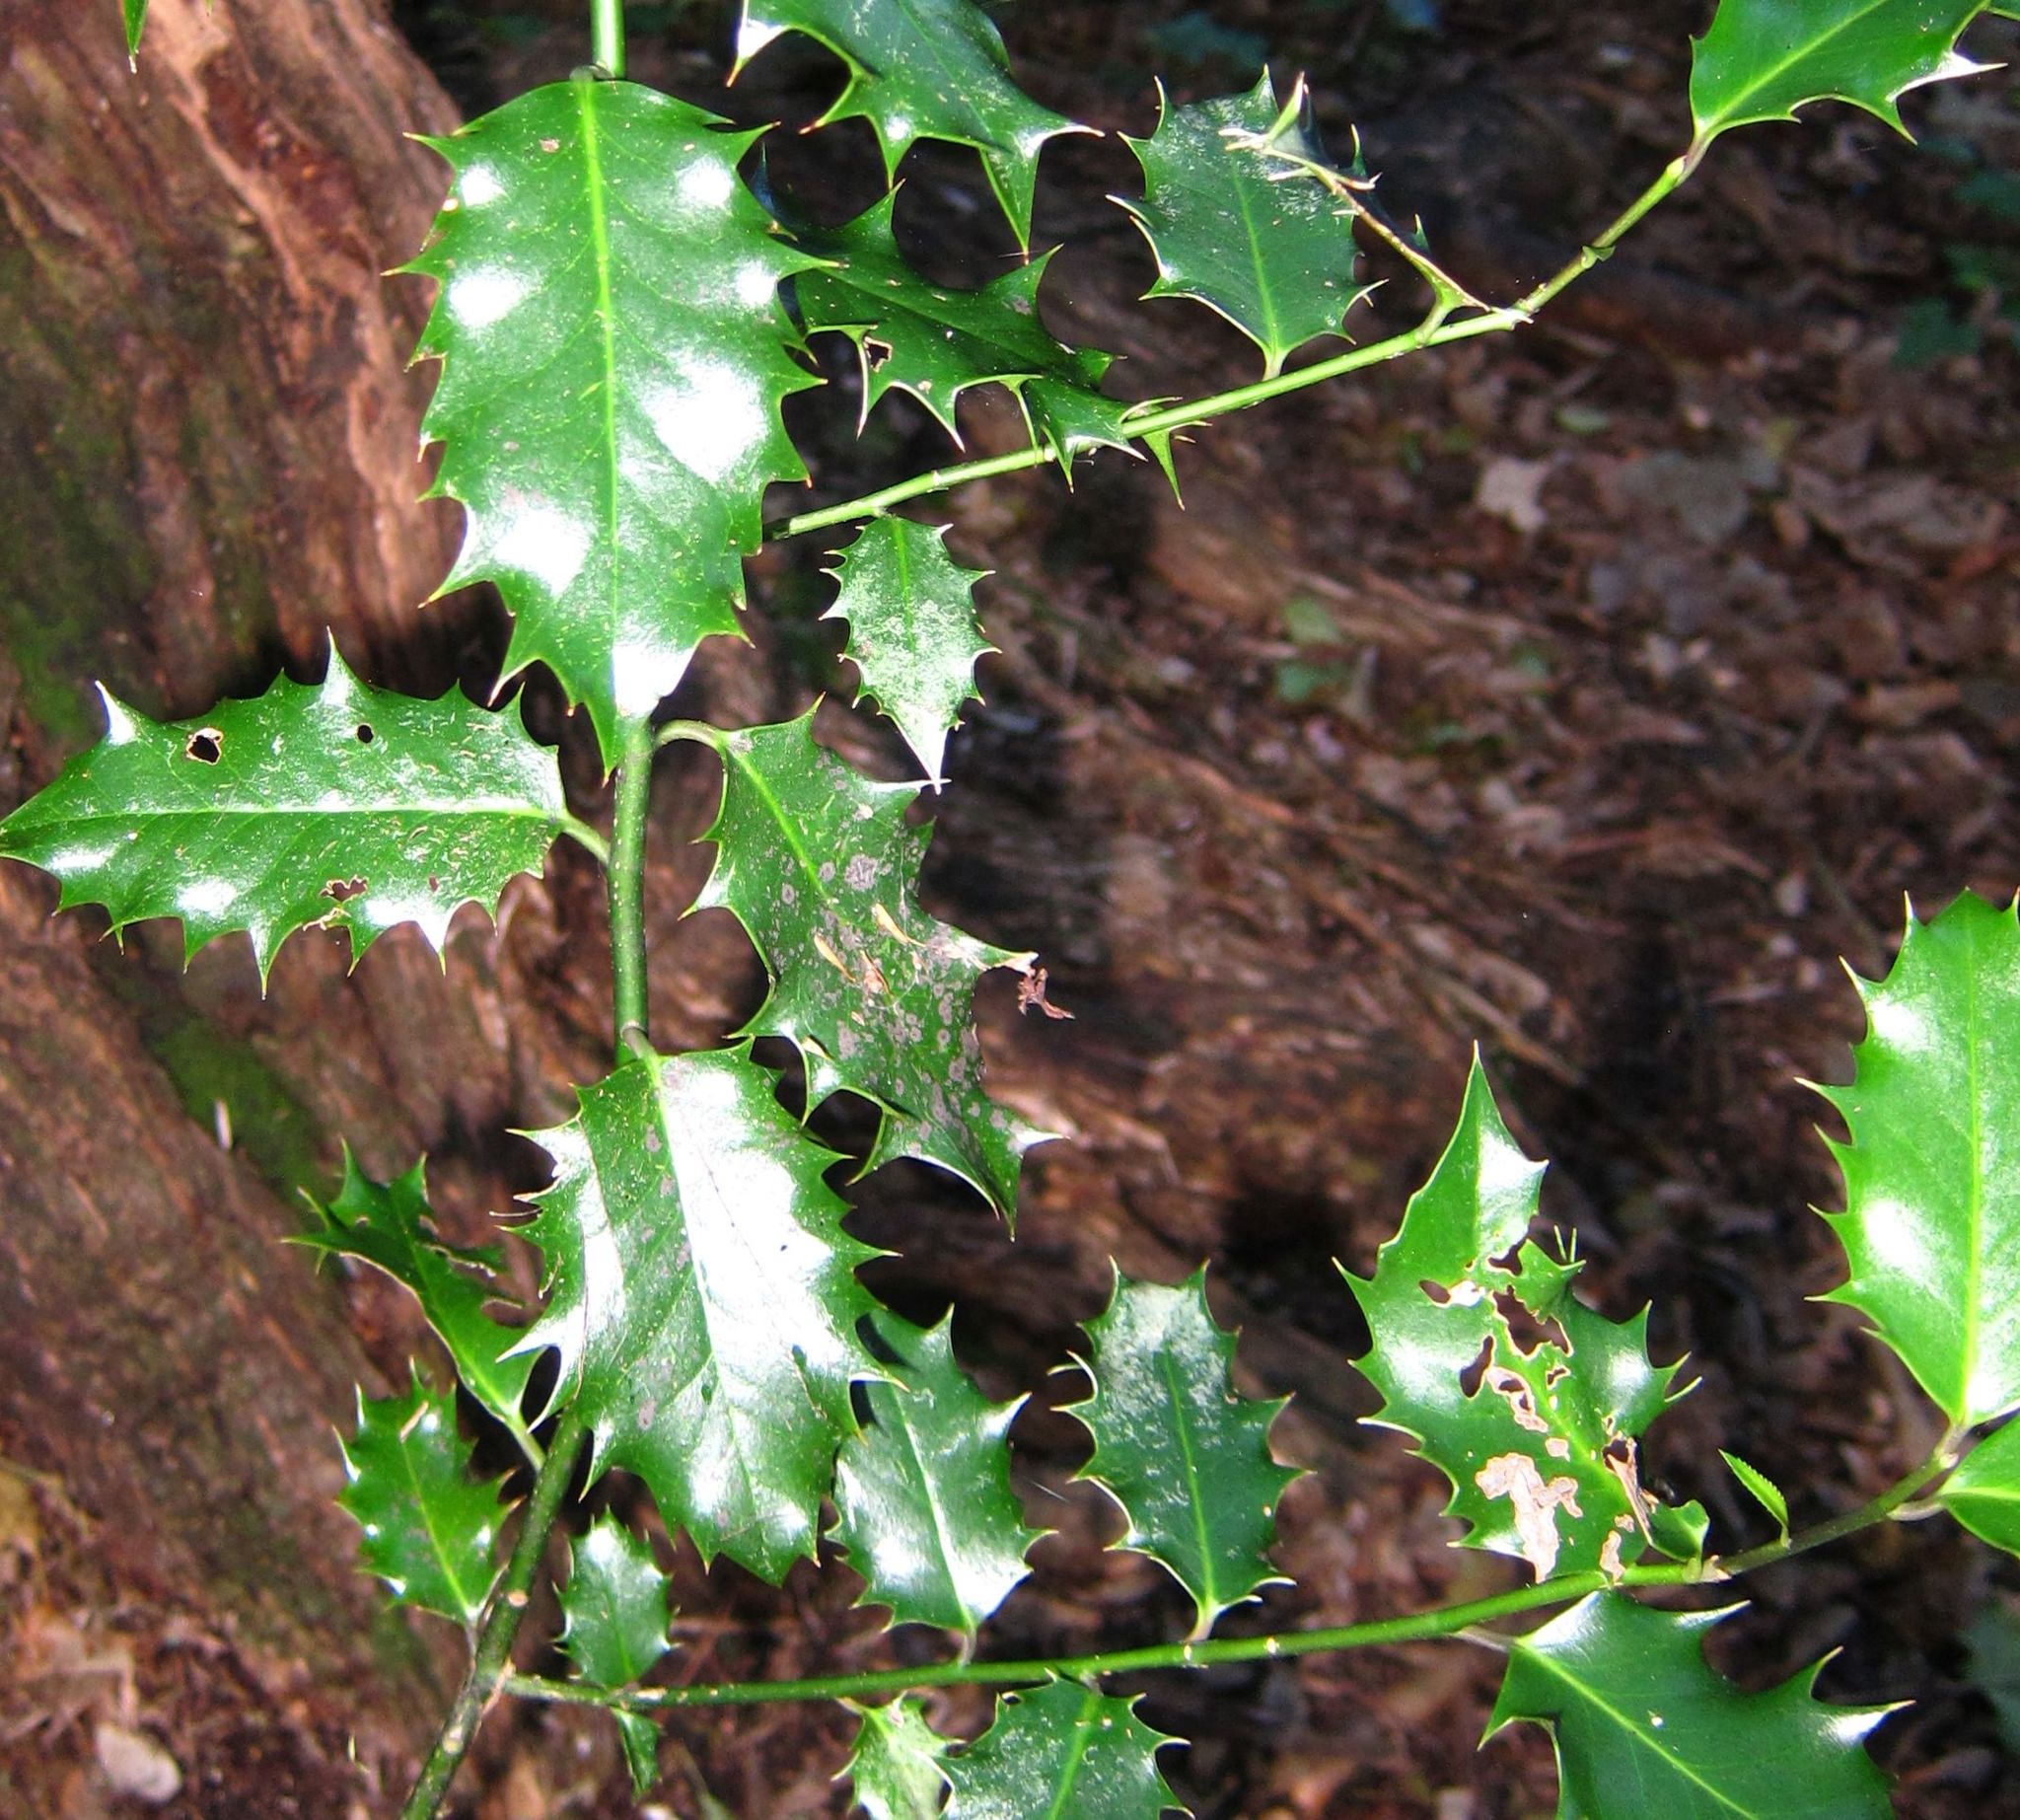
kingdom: Plantae
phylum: Tracheophyta
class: Magnoliopsida
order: Aquifoliales
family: Aquifoliaceae
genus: Ilex
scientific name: Ilex aquifolium
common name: English holly
